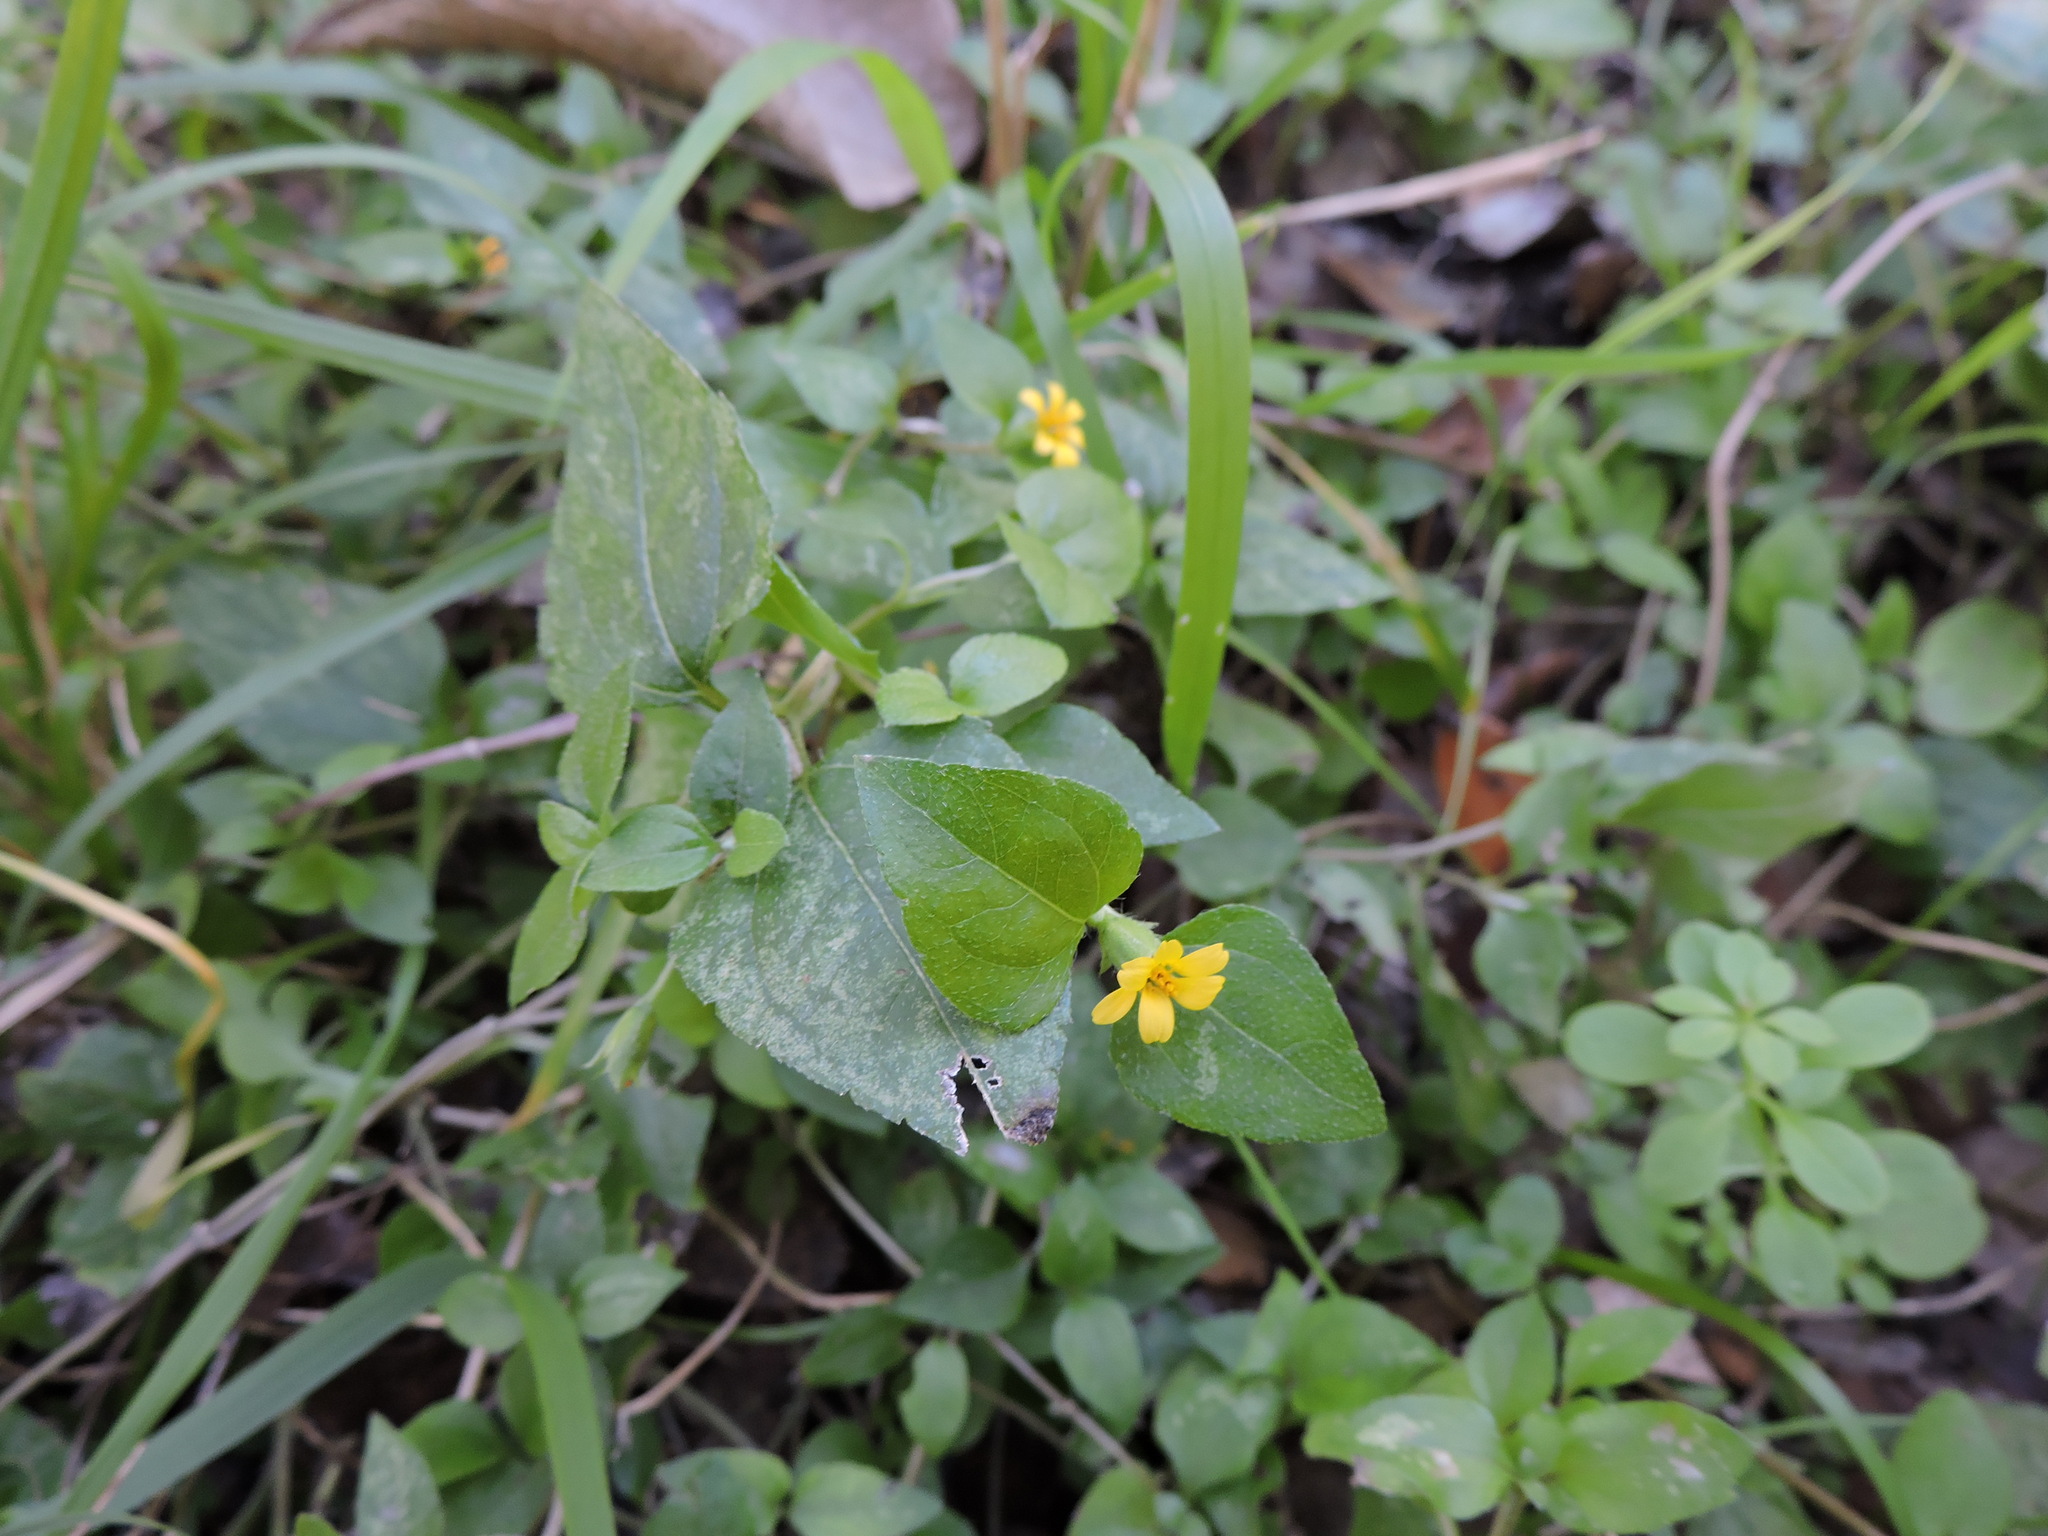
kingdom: Plantae
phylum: Tracheophyta
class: Magnoliopsida
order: Asterales
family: Asteraceae
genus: Calyptocarpus
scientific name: Calyptocarpus vialis
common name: Straggler daisy
